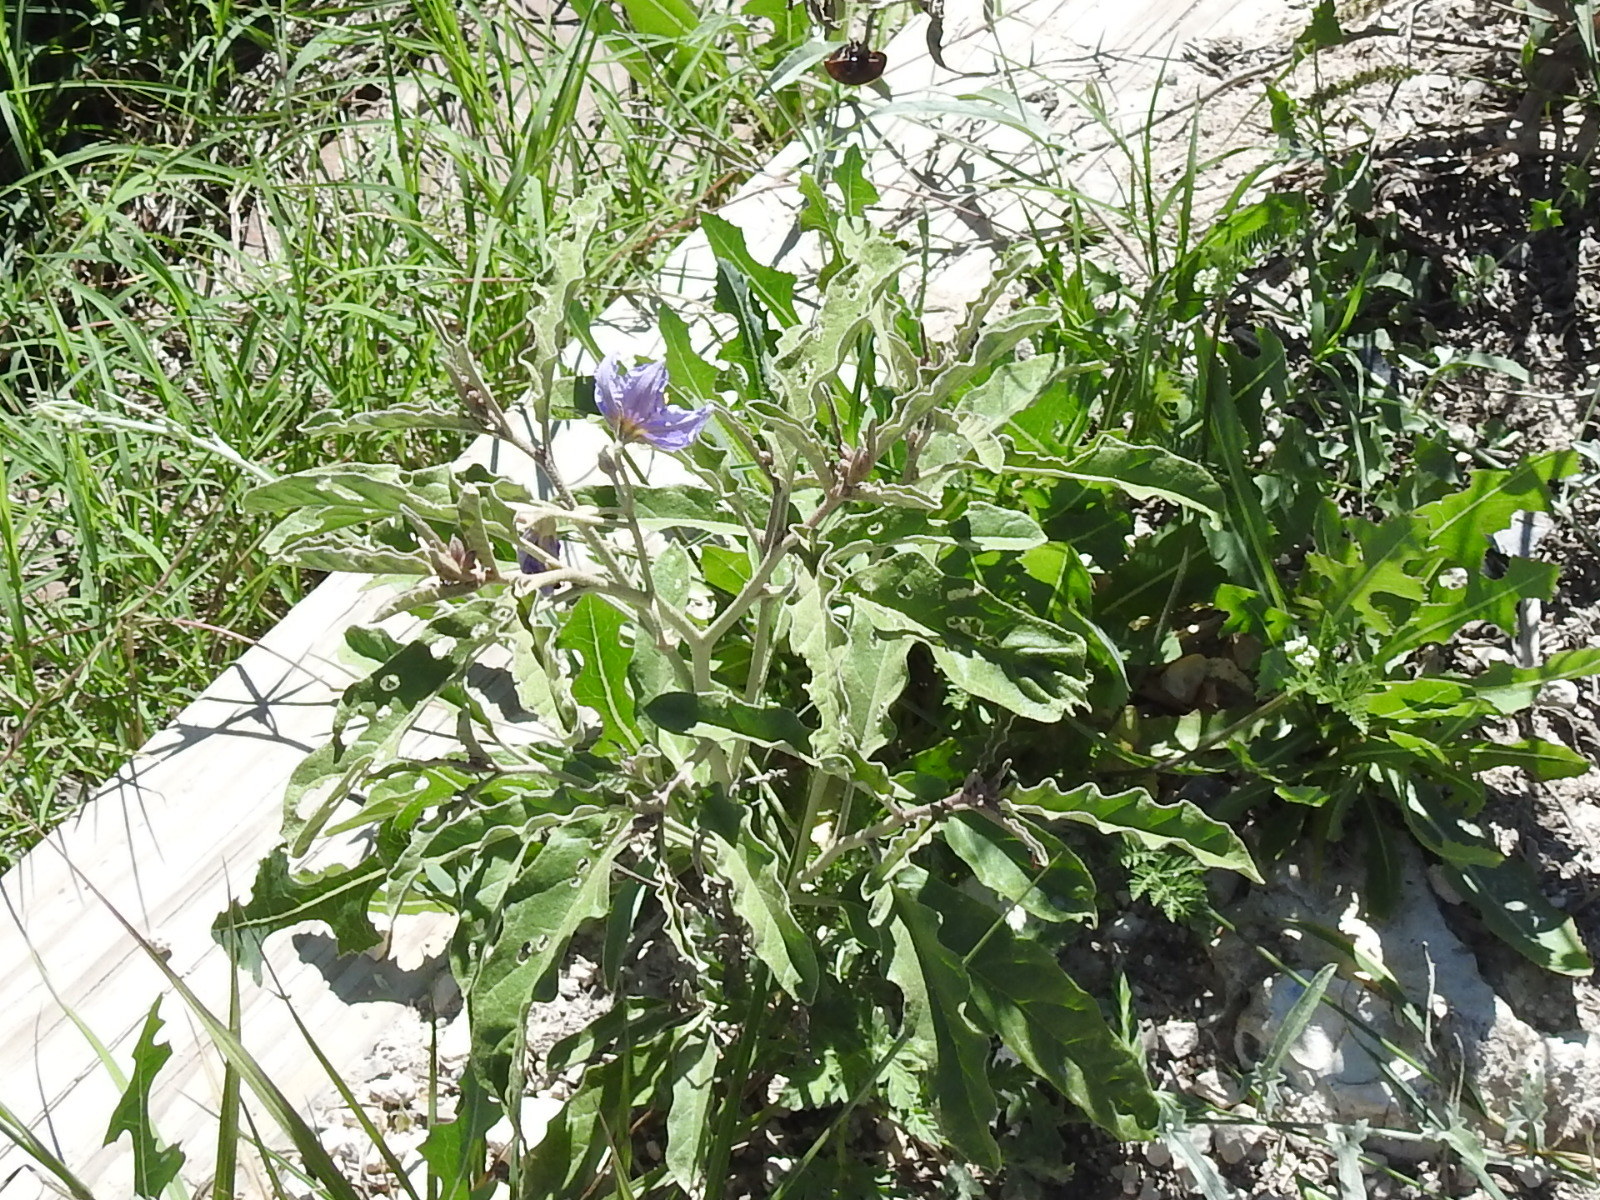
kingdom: Plantae
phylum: Tracheophyta
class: Magnoliopsida
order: Solanales
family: Solanaceae
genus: Solanum
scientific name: Solanum elaeagnifolium
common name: Silverleaf nightshade
